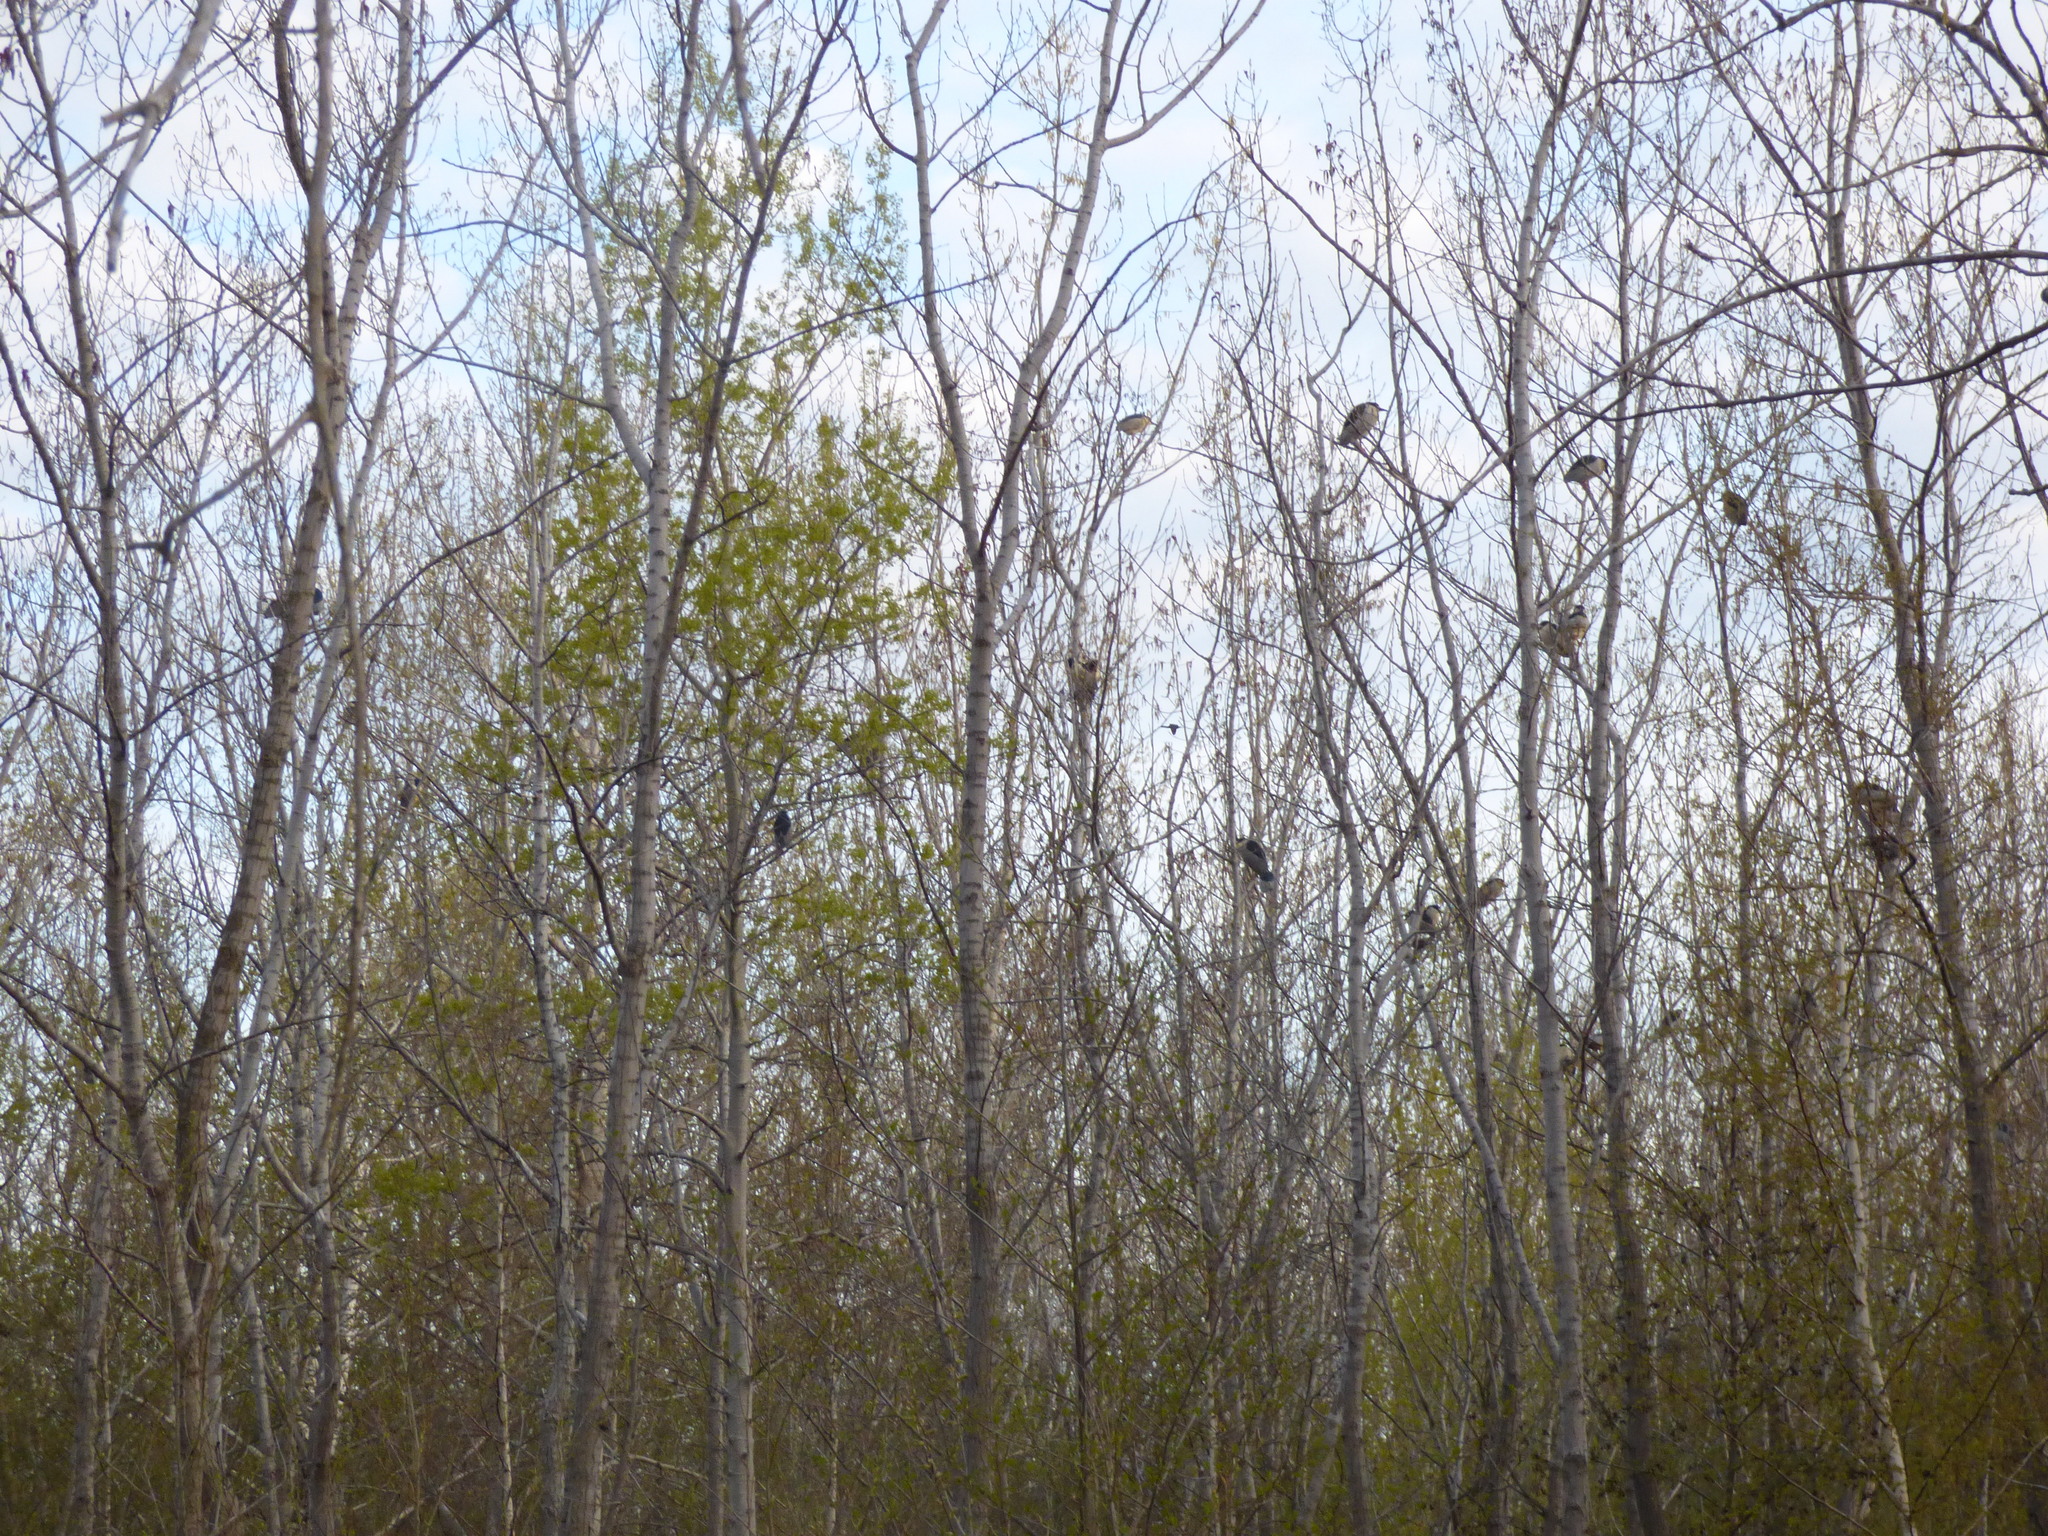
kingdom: Animalia
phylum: Chordata
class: Aves
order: Pelecaniformes
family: Ardeidae
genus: Nycticorax
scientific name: Nycticorax nycticorax
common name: Black-crowned night heron
